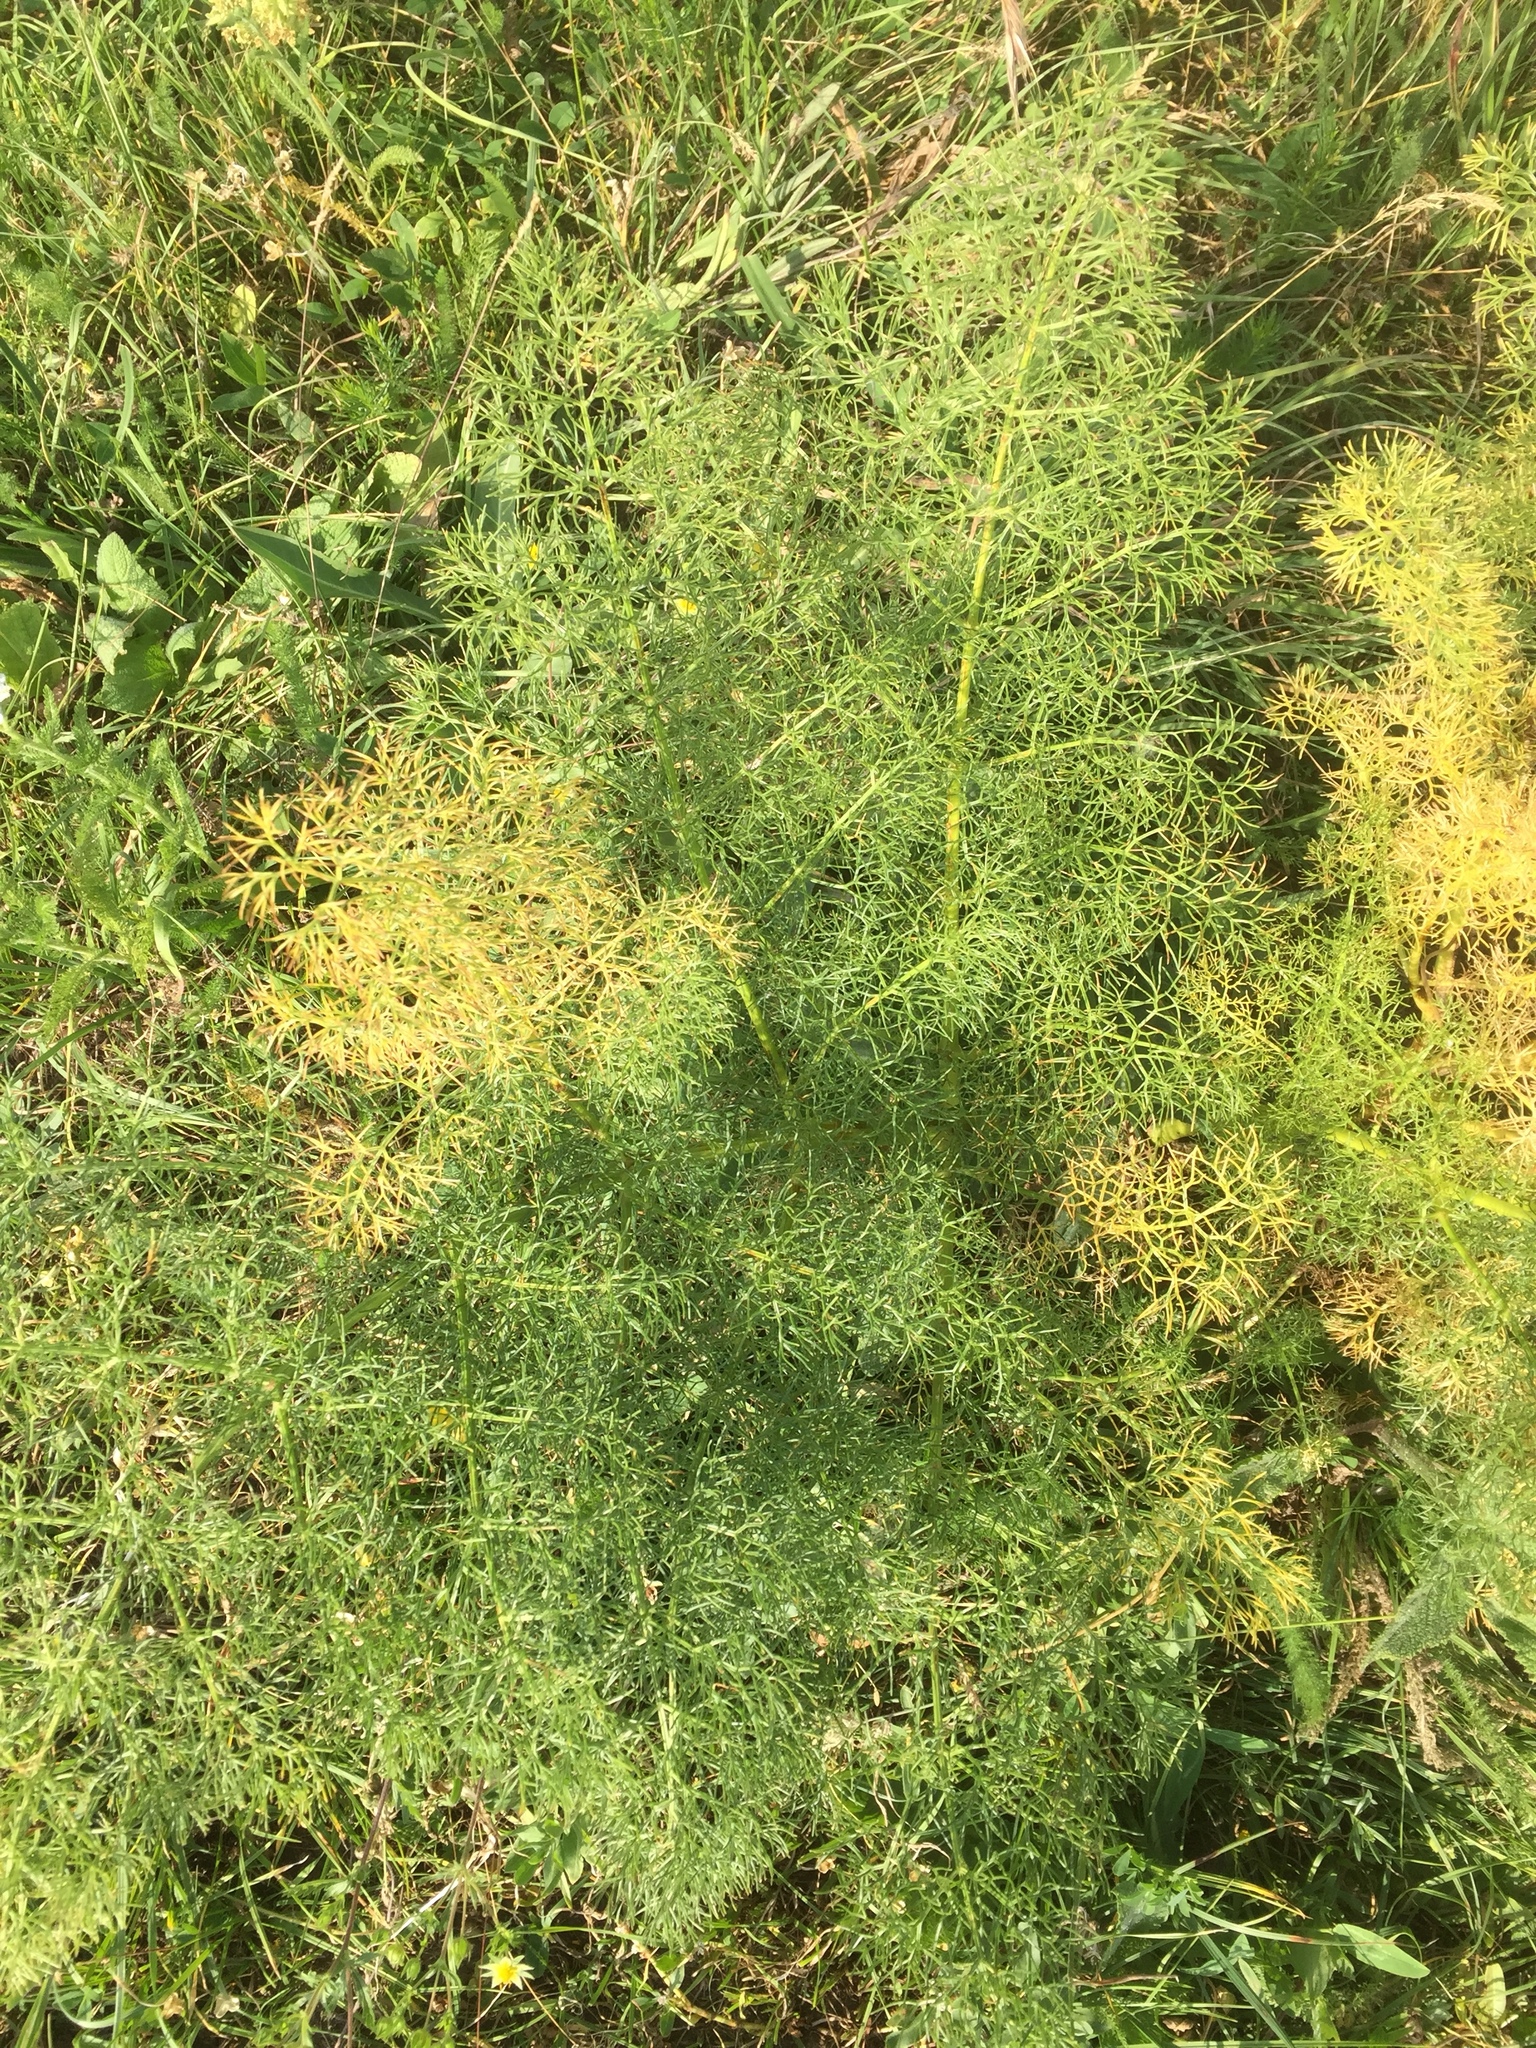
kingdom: Plantae
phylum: Tracheophyta
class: Magnoliopsida
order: Apiales
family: Apiaceae
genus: Foeniculum
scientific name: Foeniculum vulgare
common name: Fennel
